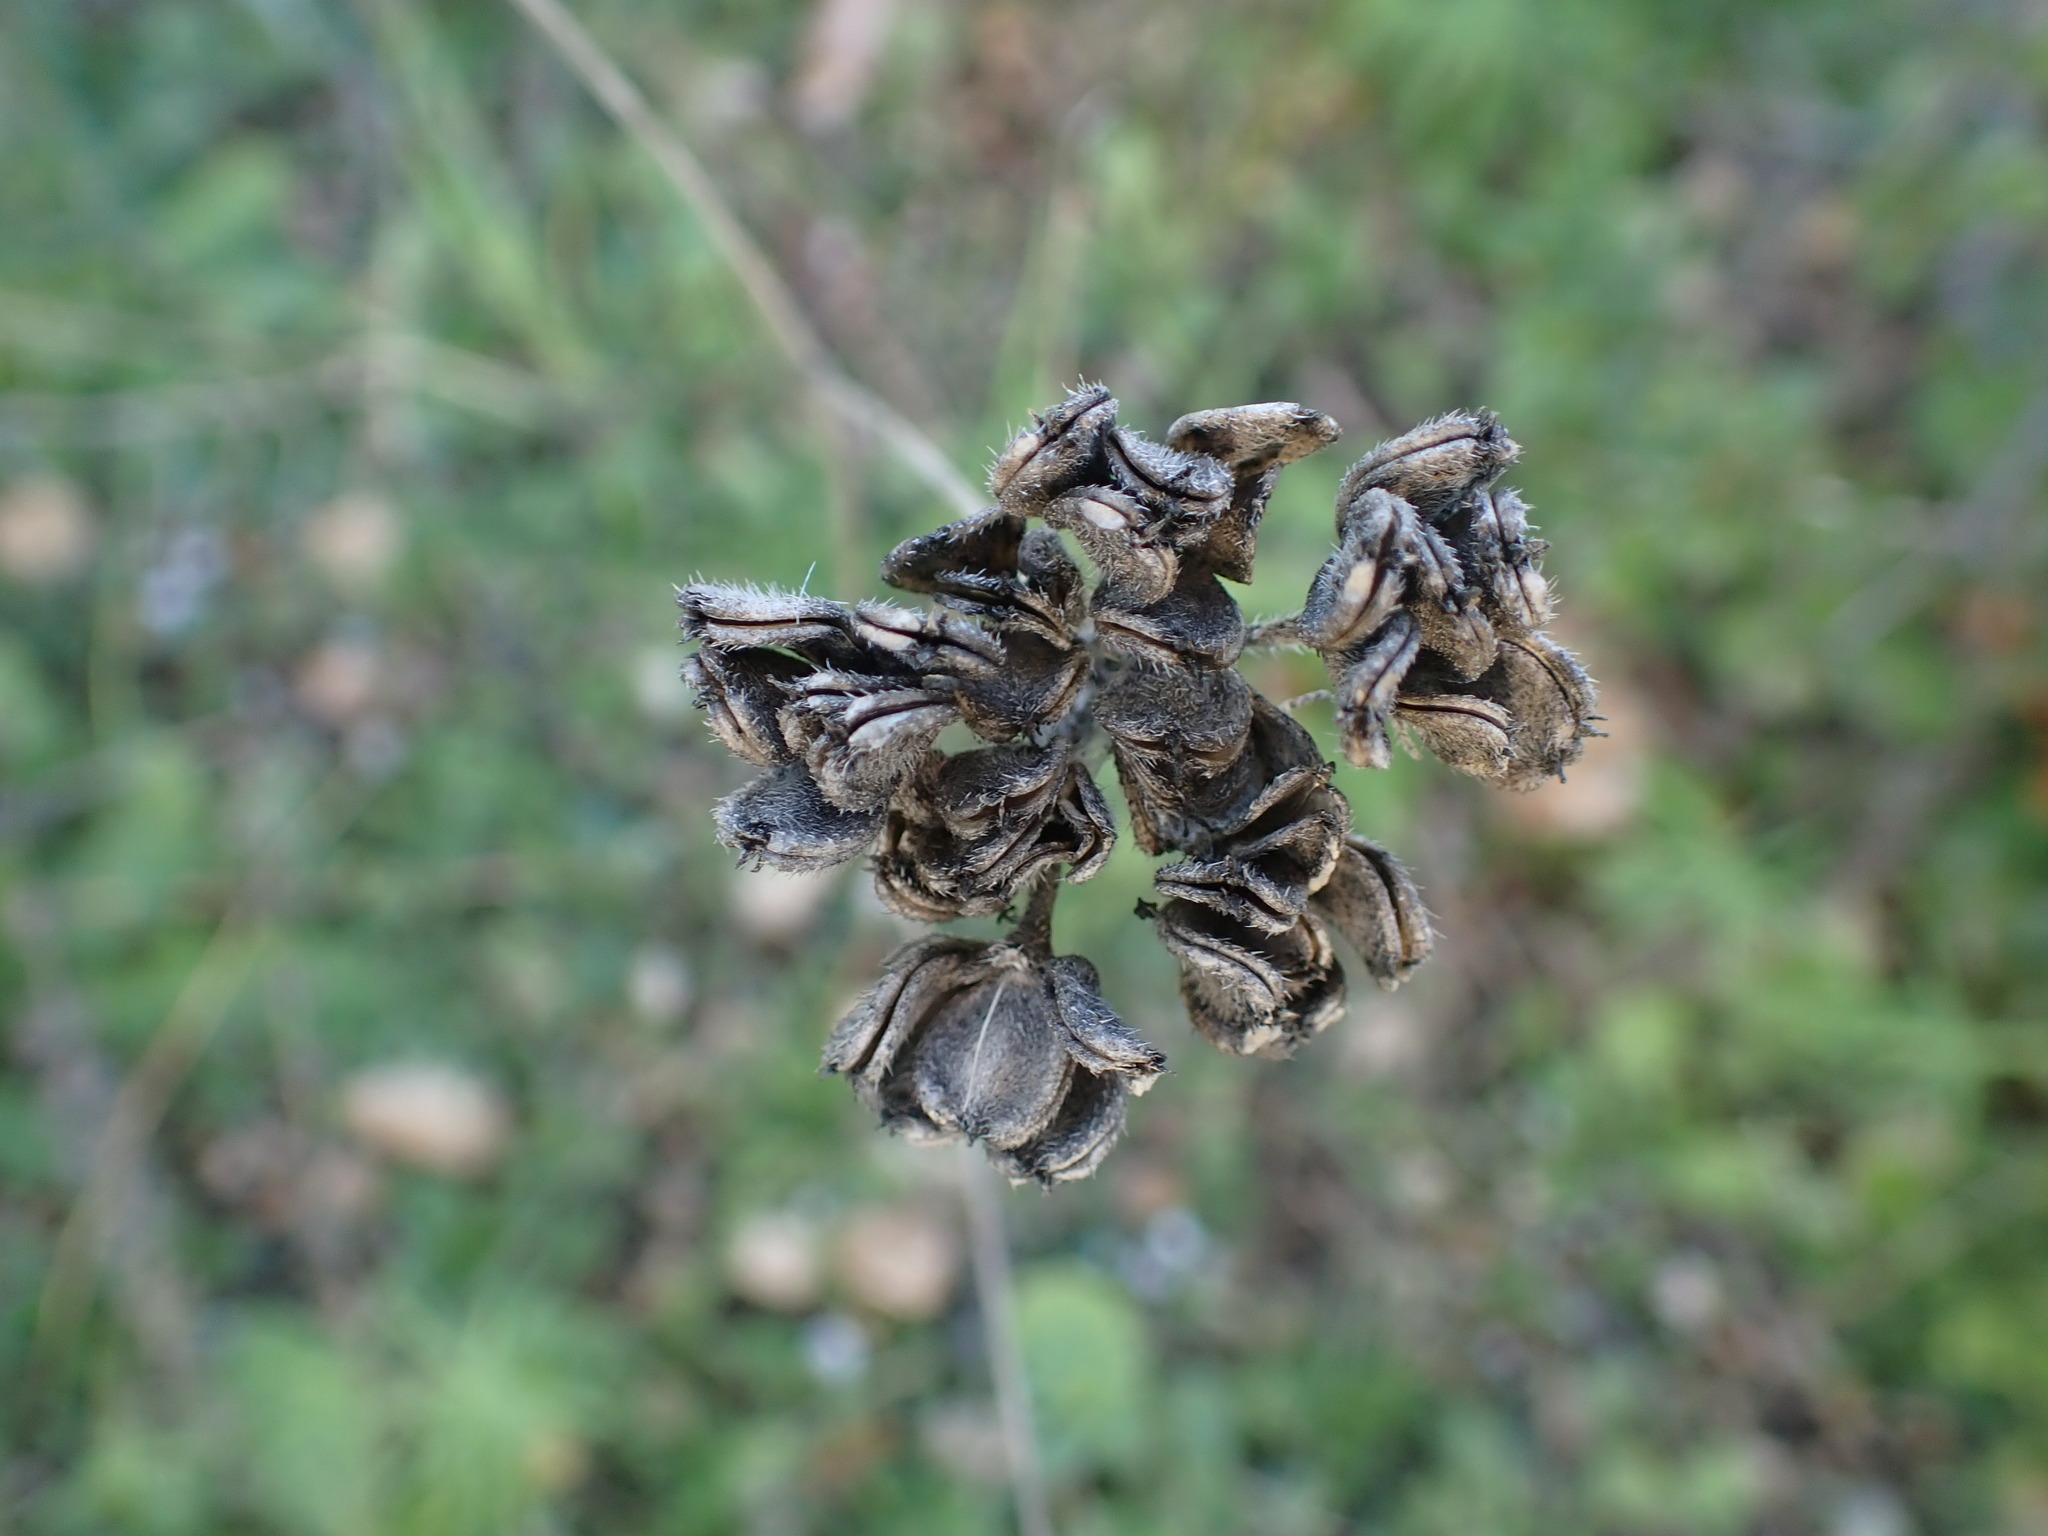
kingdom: Plantae
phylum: Tracheophyta
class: Magnoliopsida
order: Apiales
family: Apiaceae
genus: Tordylium
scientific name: Tordylium maximum
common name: Hartwort
